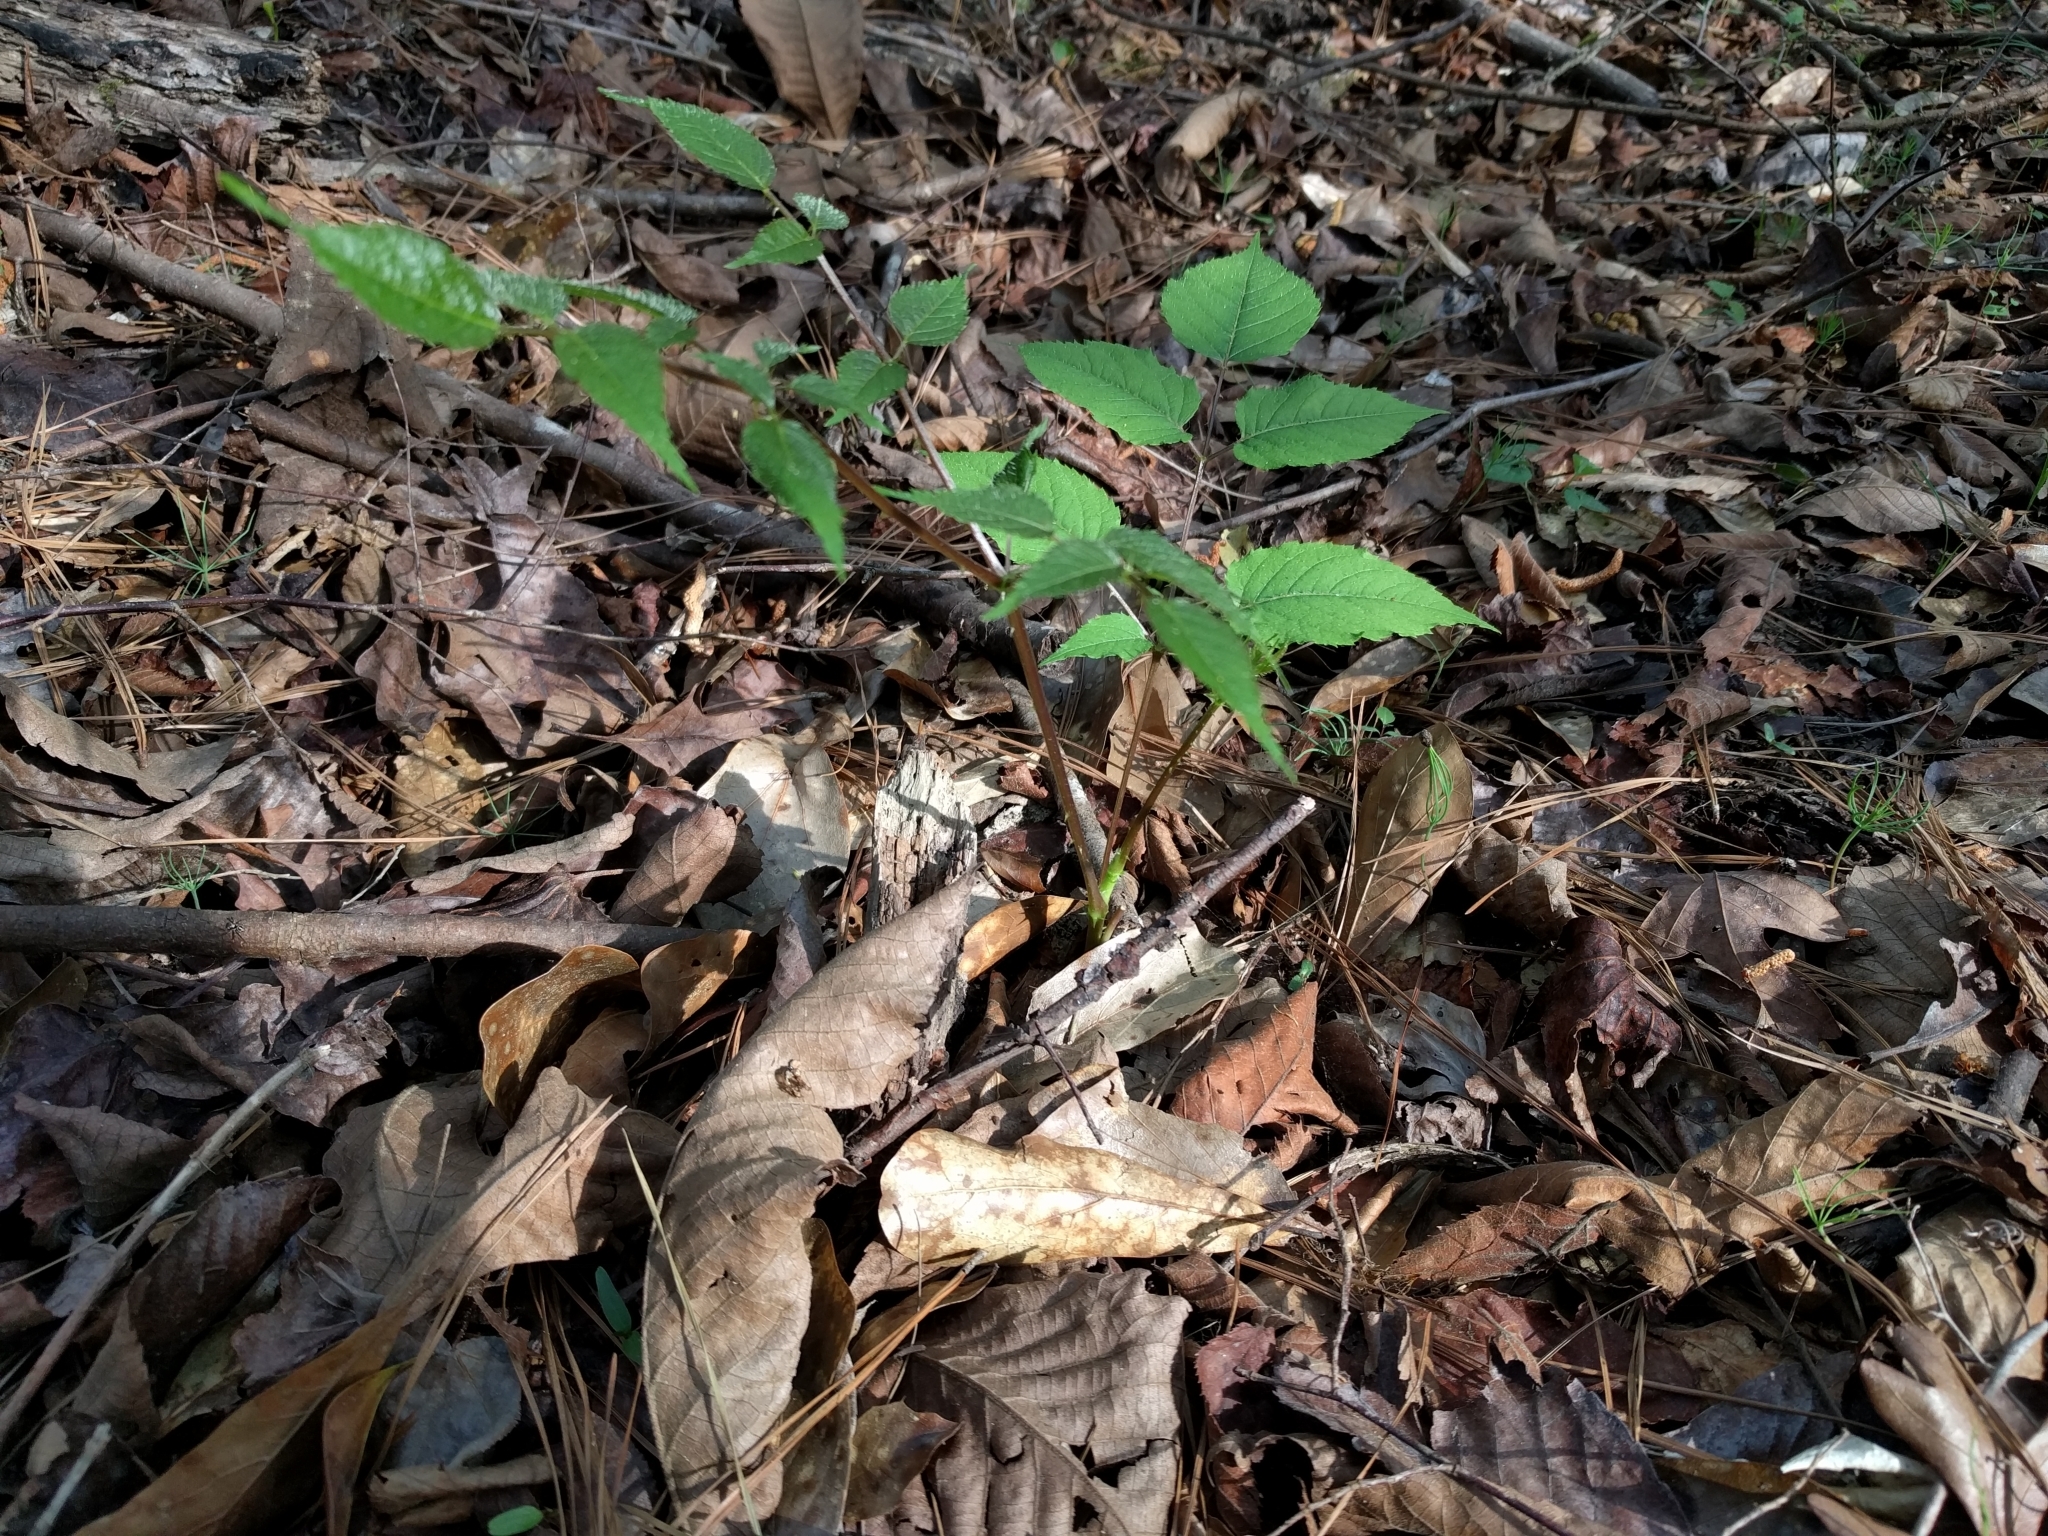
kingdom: Plantae
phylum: Tracheophyta
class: Magnoliopsida
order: Apiales
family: Araliaceae
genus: Aralia
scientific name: Aralia spinosa
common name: Hercules'-club
